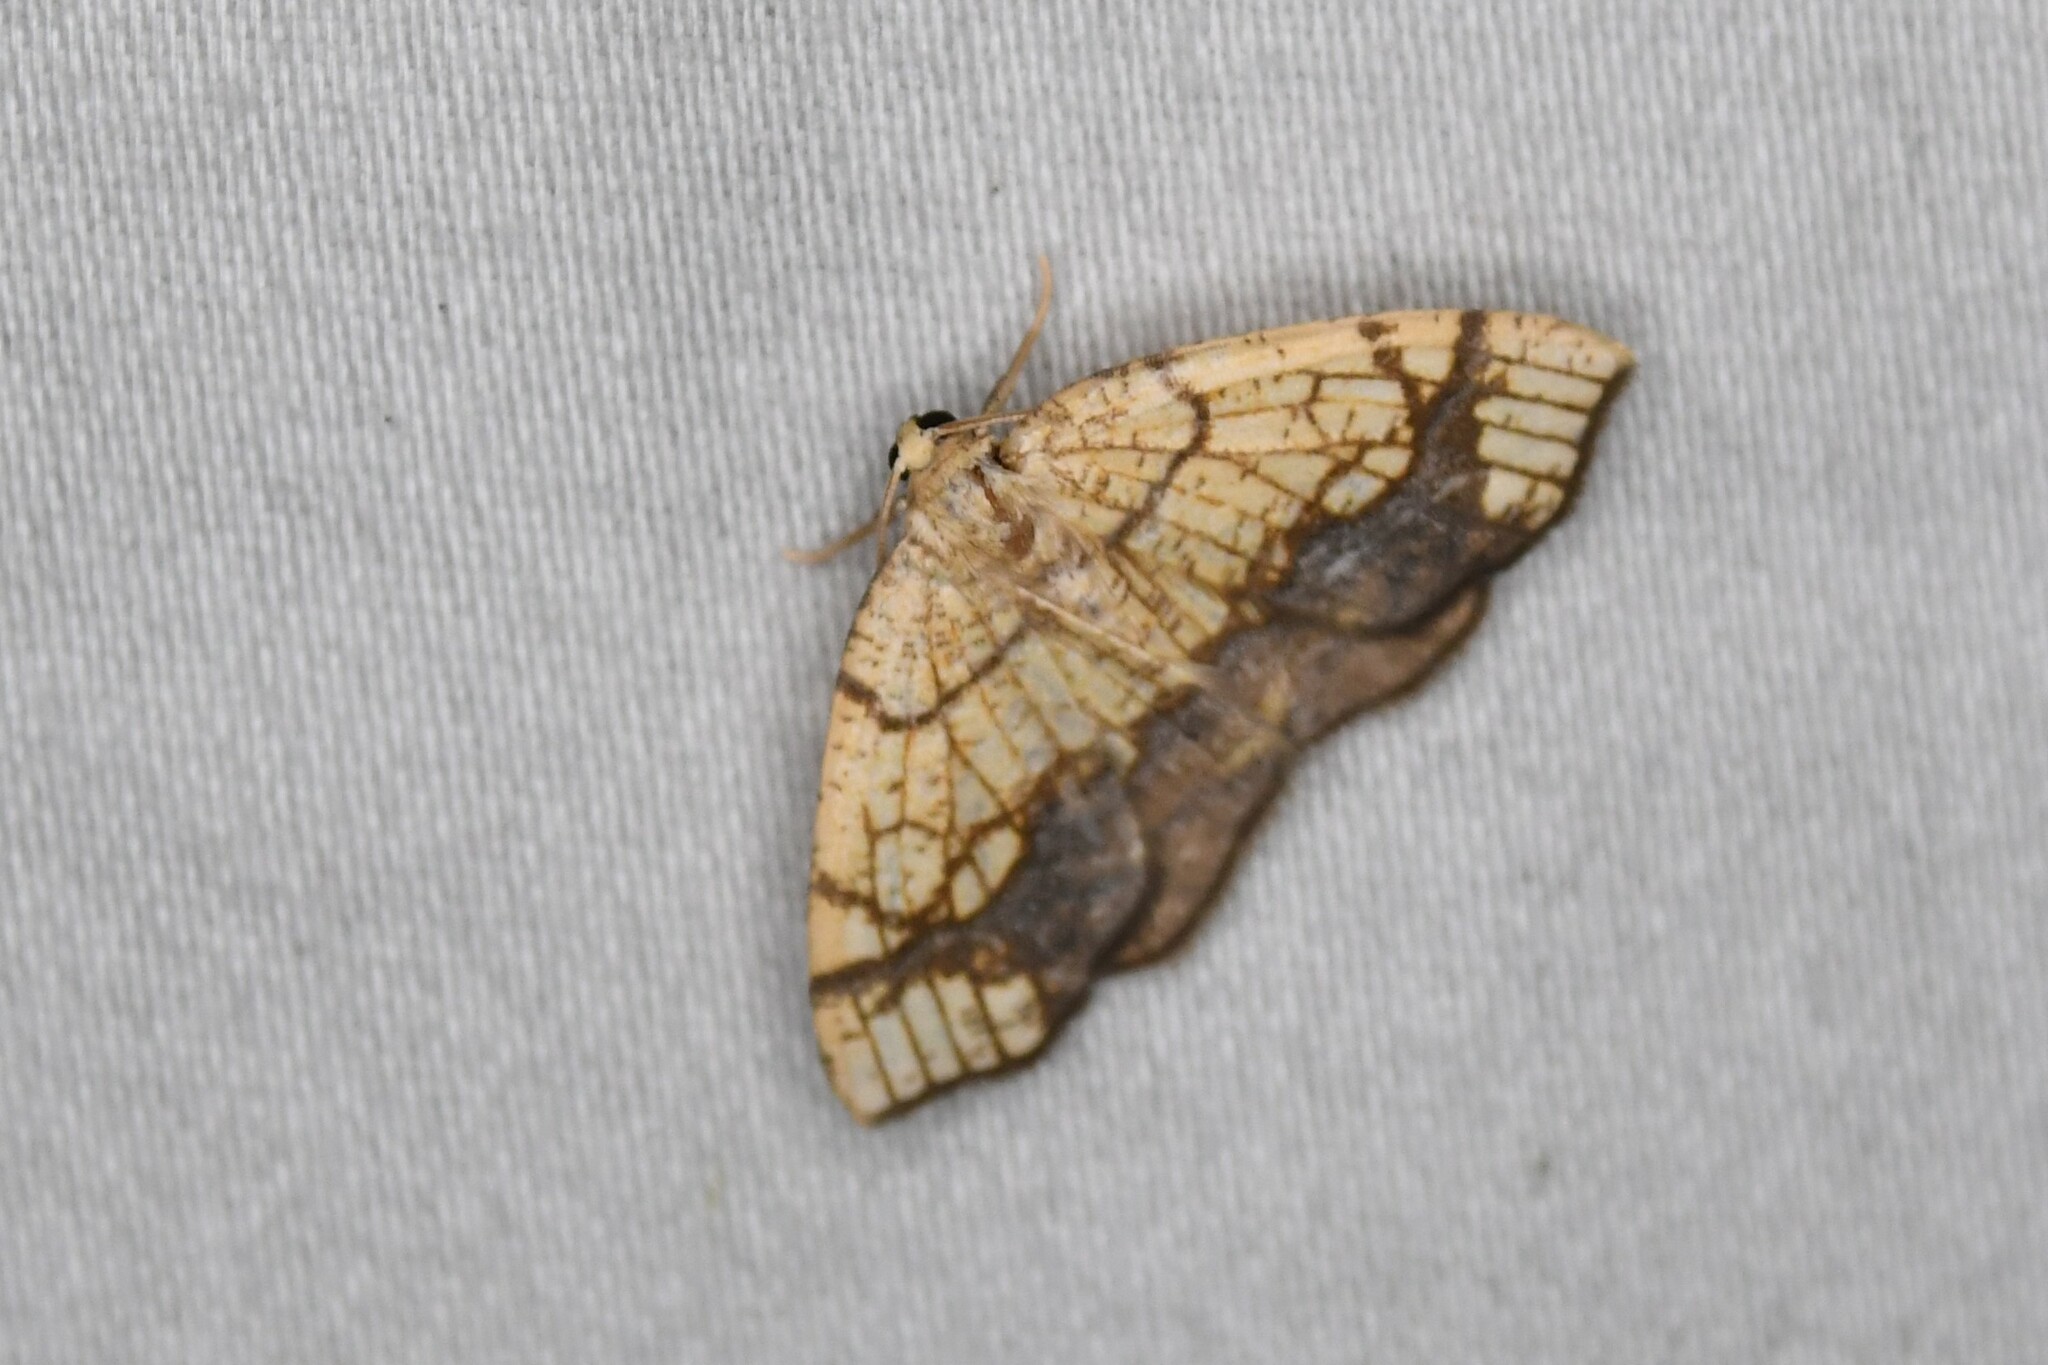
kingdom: Animalia
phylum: Arthropoda
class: Insecta
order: Lepidoptera
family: Geometridae
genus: Nematocampa
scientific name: Nematocampa resistaria
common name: Horned spanworm moth
